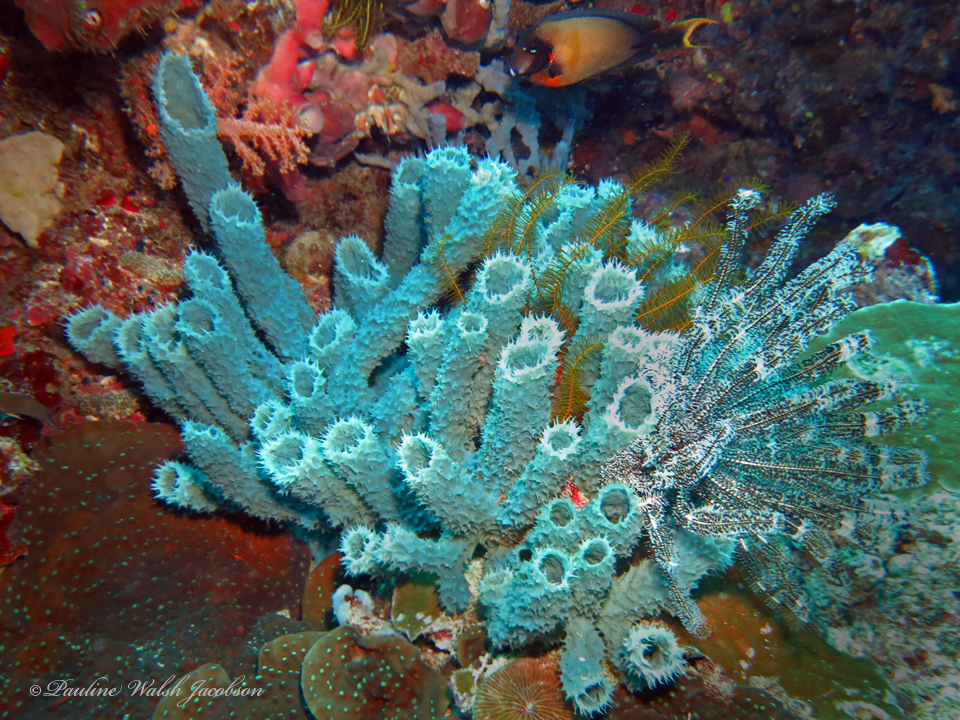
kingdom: Animalia
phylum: Chordata
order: Perciformes
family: Acanthuridae
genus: Acanthurus
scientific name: Acanthurus pyroferus
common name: Chocolate surgeonfish
